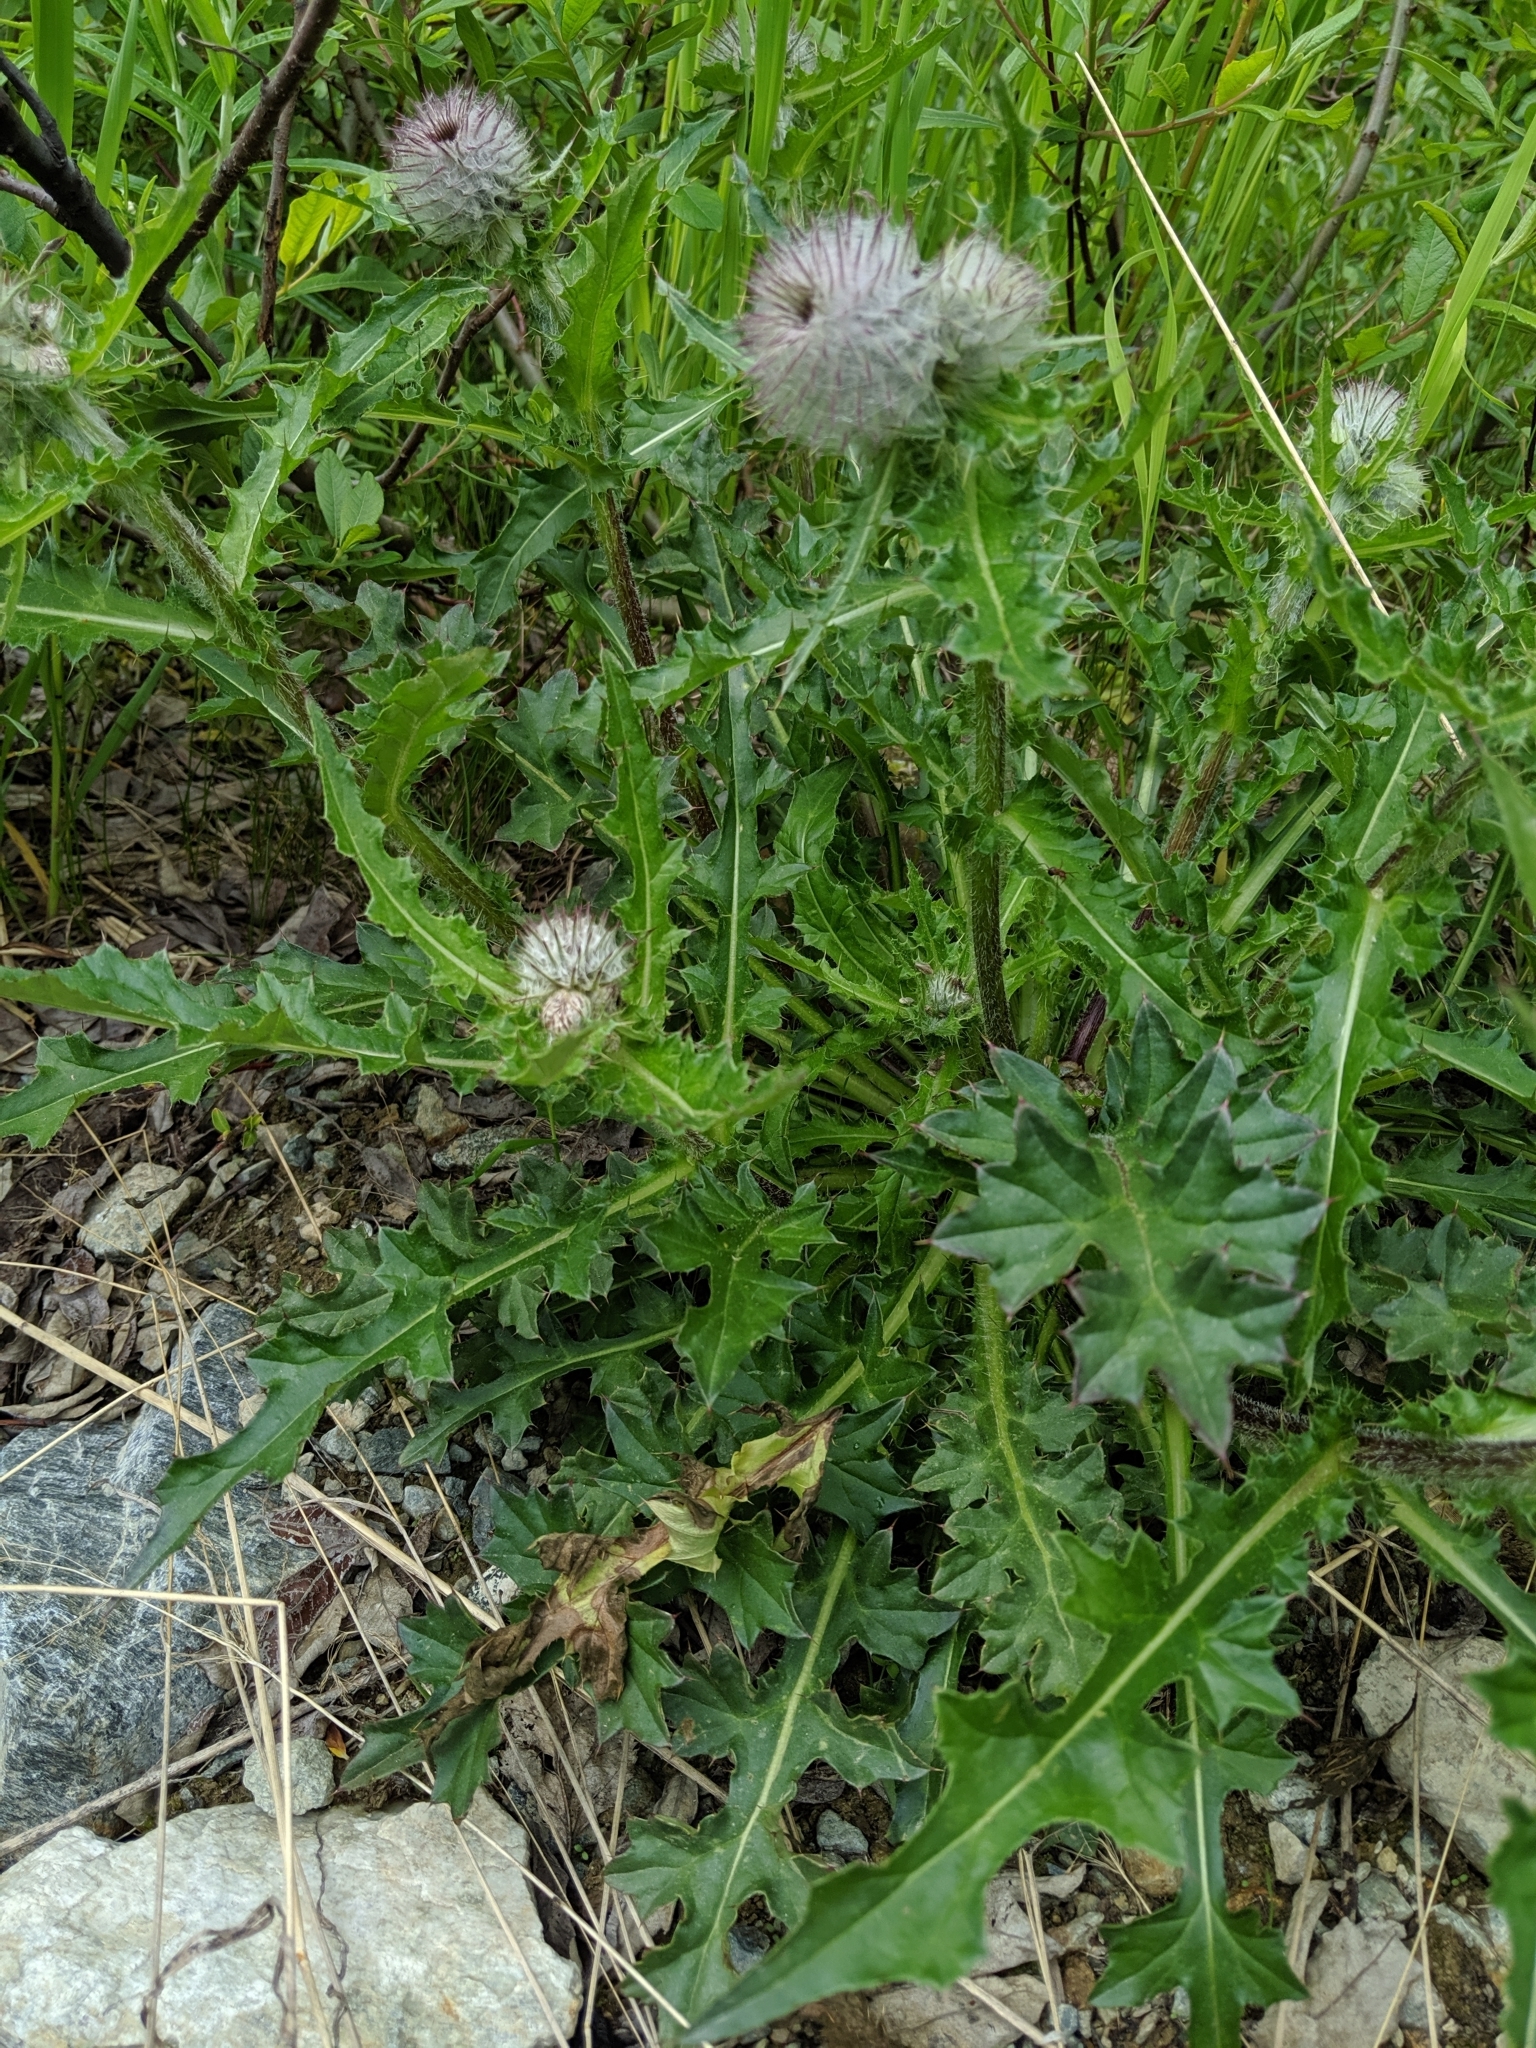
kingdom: Plantae
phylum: Tracheophyta
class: Magnoliopsida
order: Asterales
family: Asteraceae
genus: Cirsium
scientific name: Cirsium edule
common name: Indian thistle
